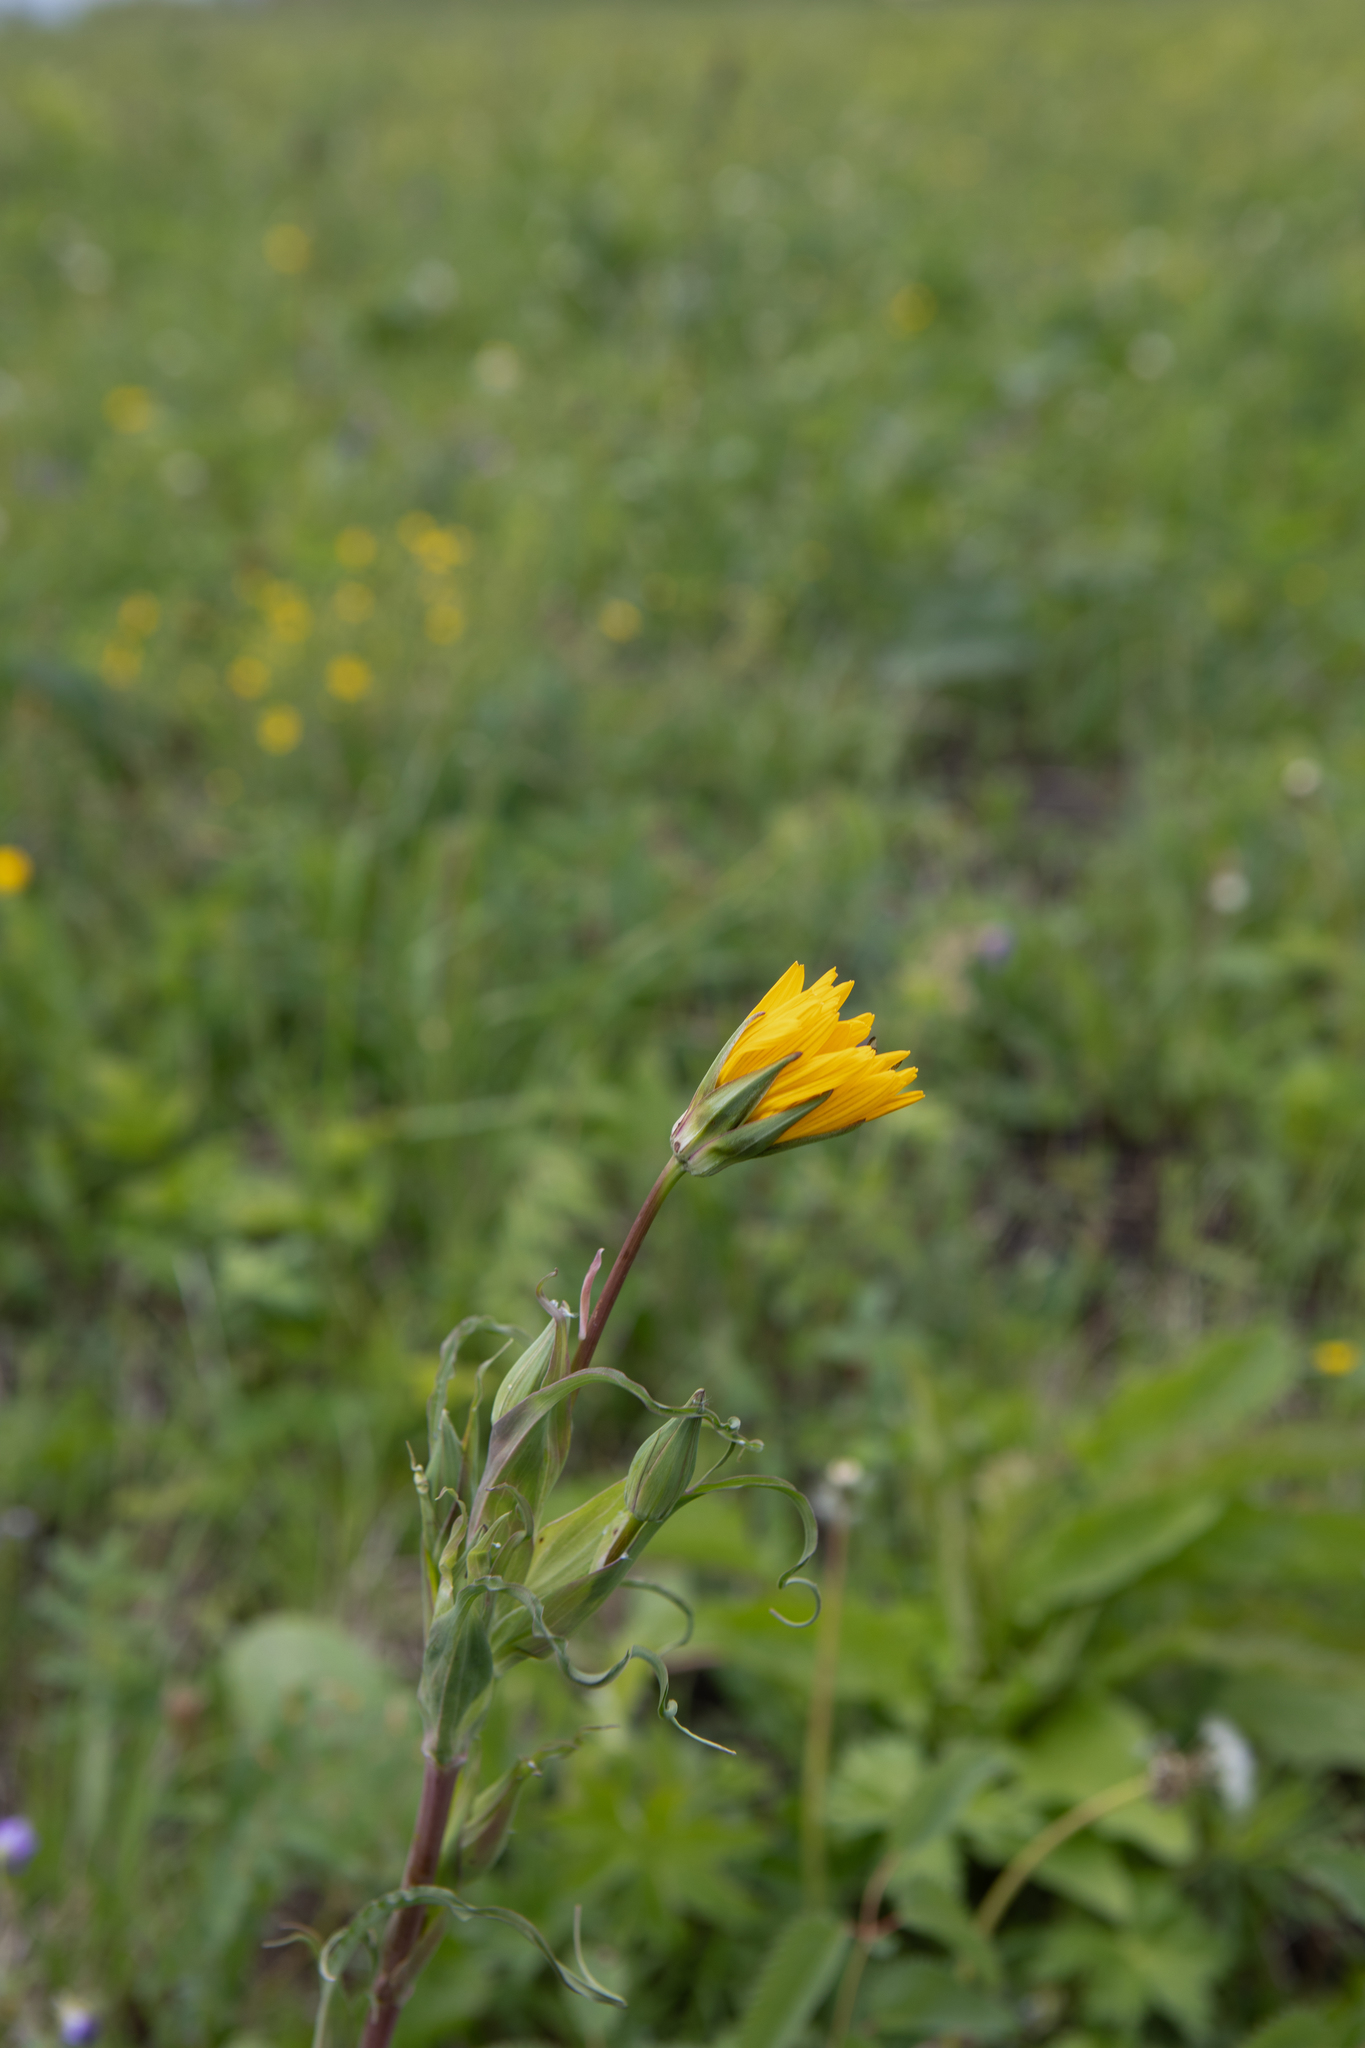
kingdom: Plantae
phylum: Tracheophyta
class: Magnoliopsida
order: Asterales
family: Asteraceae
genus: Tragopogon
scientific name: Tragopogon orientalis
